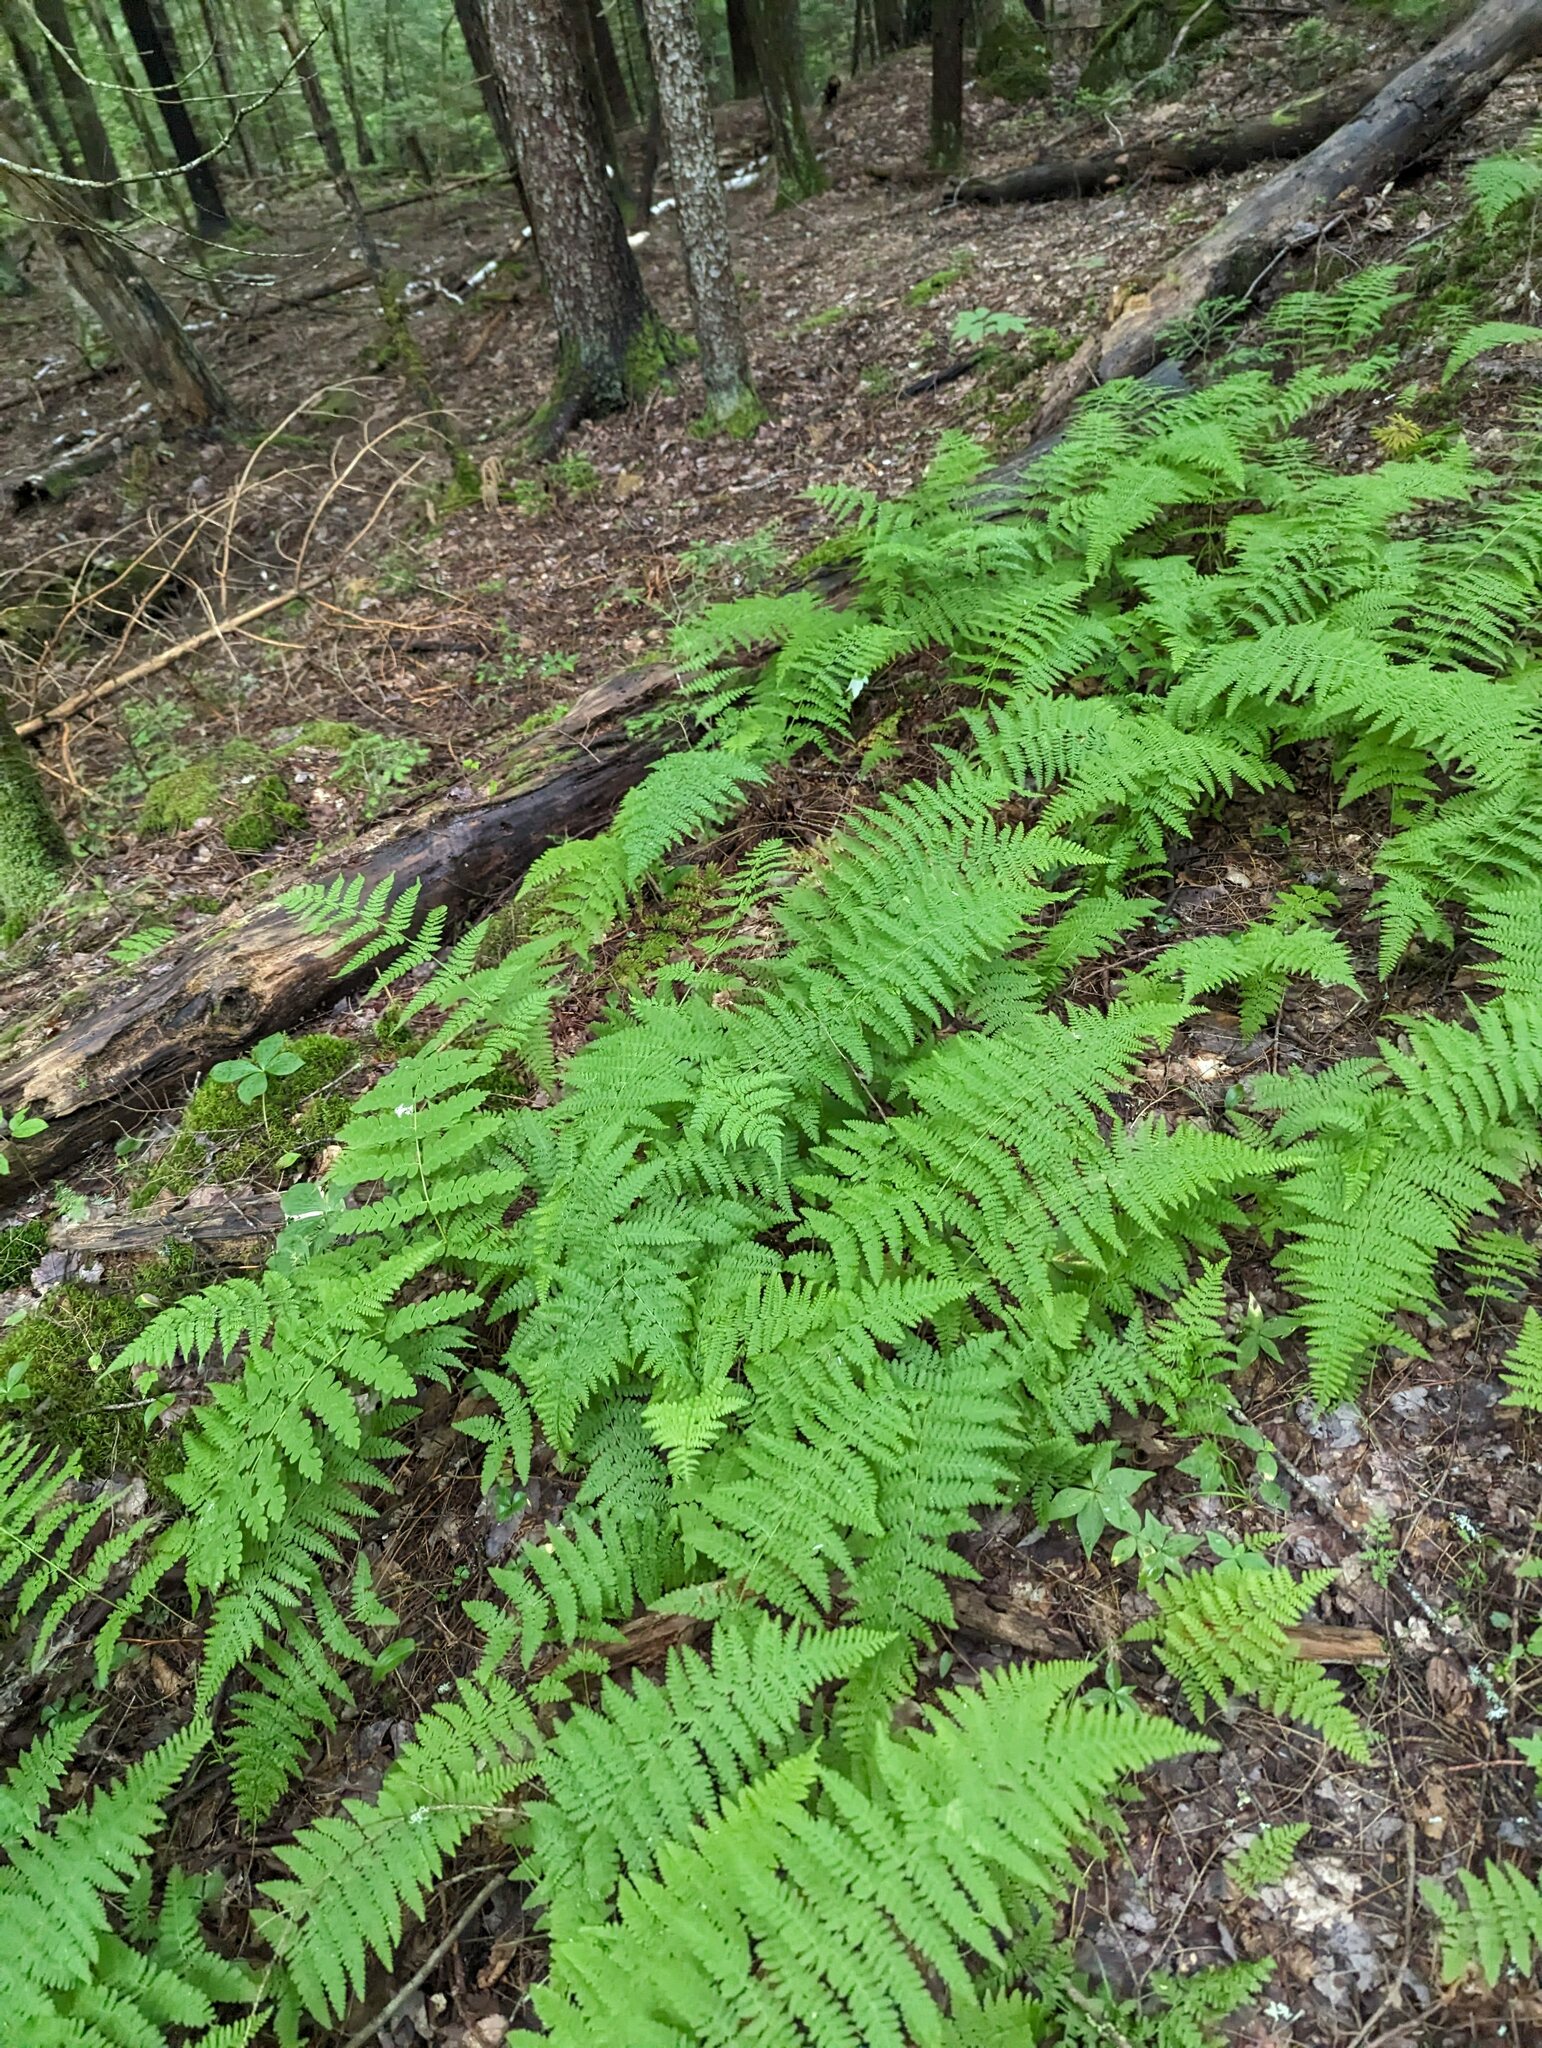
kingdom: Plantae
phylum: Tracheophyta
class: Polypodiopsida
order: Polypodiales
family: Dennstaedtiaceae
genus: Sitobolium
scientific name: Sitobolium punctilobum
